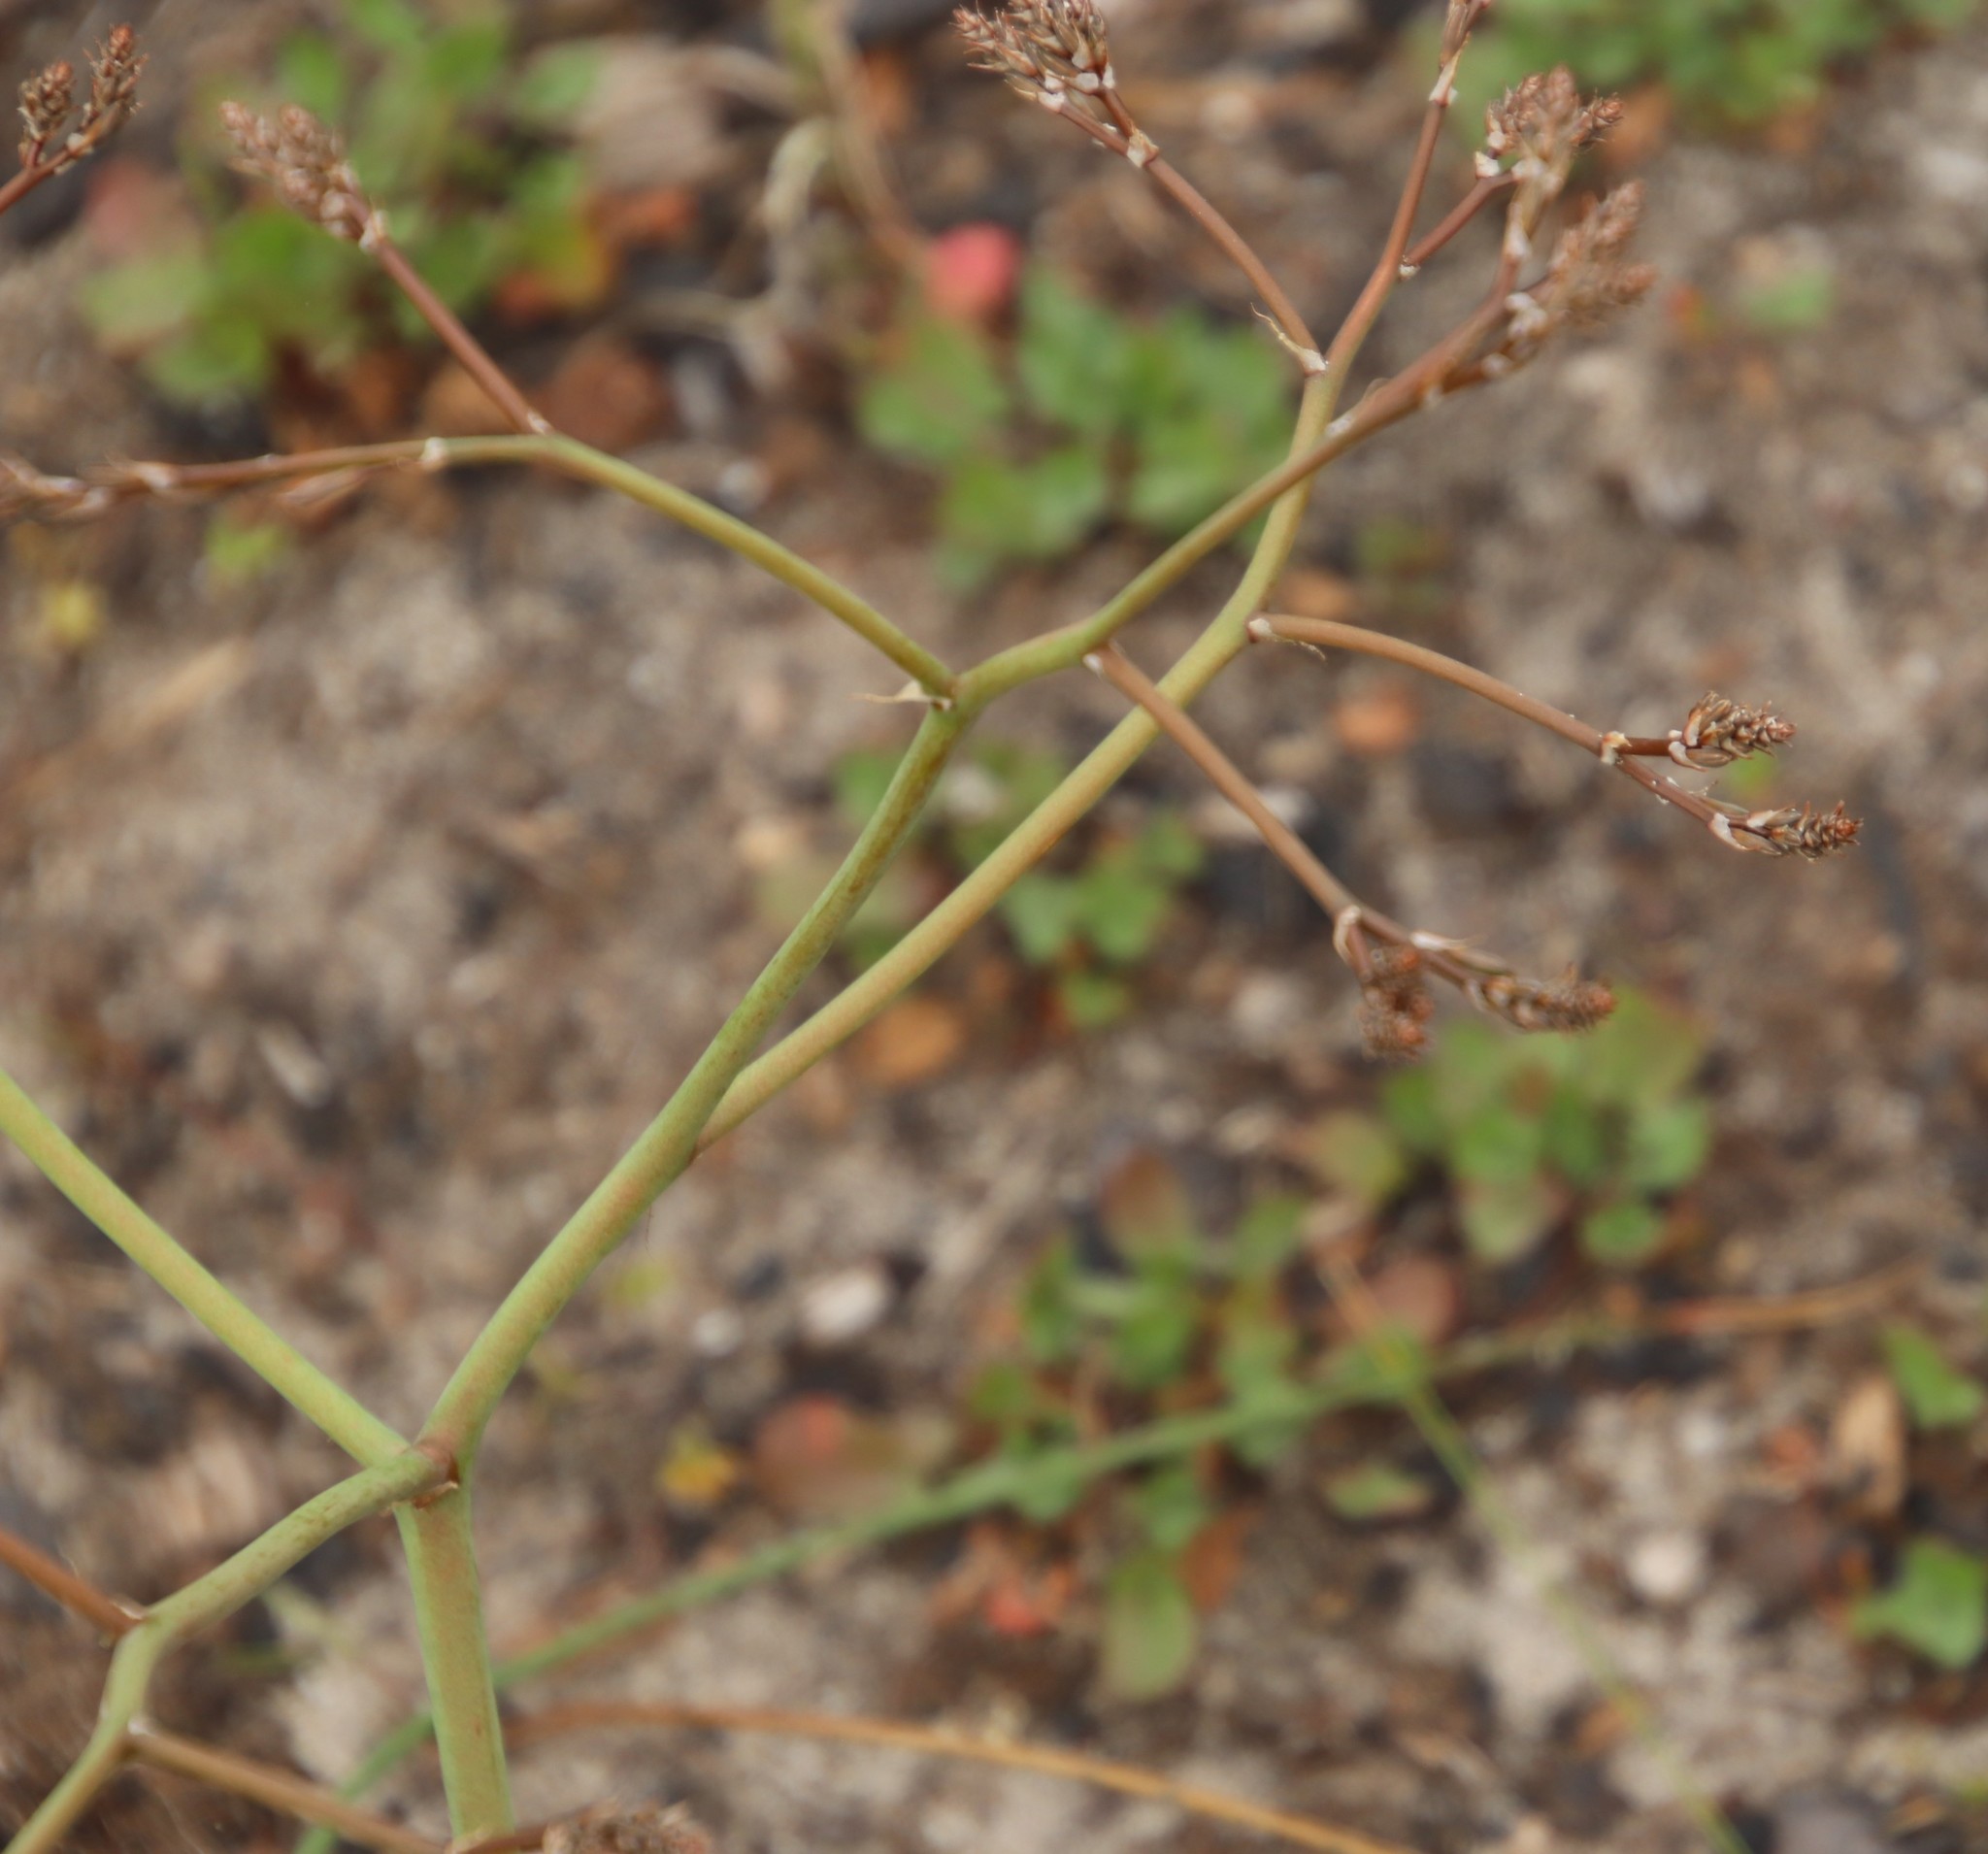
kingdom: Plantae
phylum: Tracheophyta
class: Liliopsida
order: Asparagales
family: Asphodelaceae
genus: Trachyandra
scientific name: Trachyandra divaricata
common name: Dune onionweed
